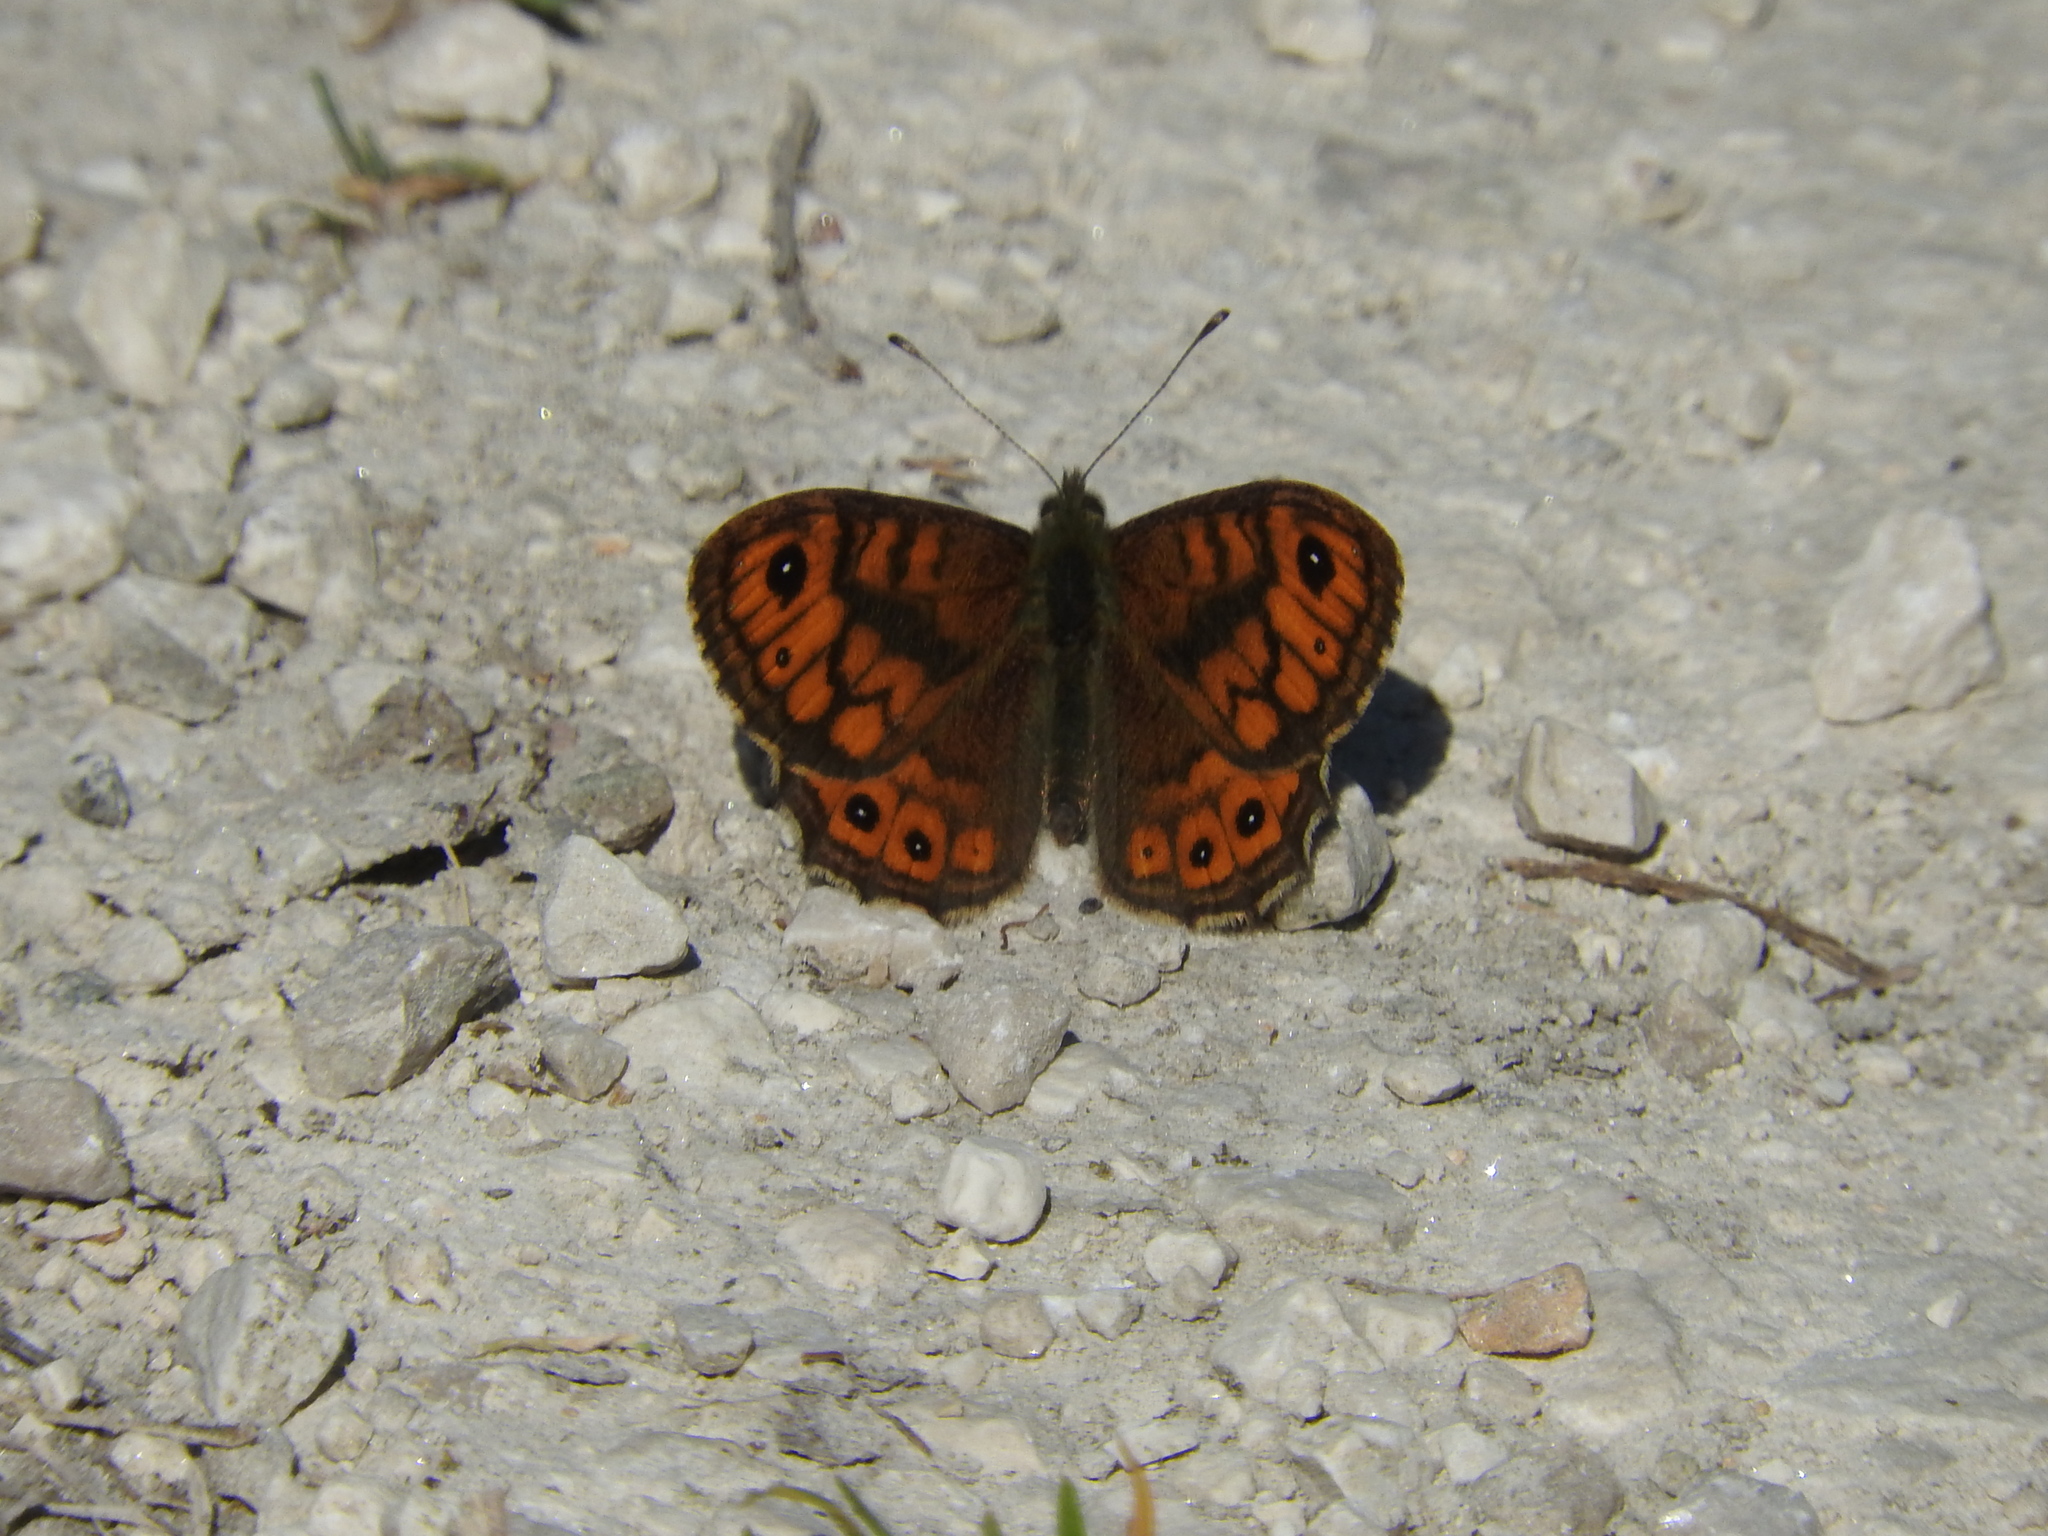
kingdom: Animalia
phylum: Arthropoda
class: Insecta
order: Lepidoptera
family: Nymphalidae
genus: Pararge
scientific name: Pararge Lasiommata megera
